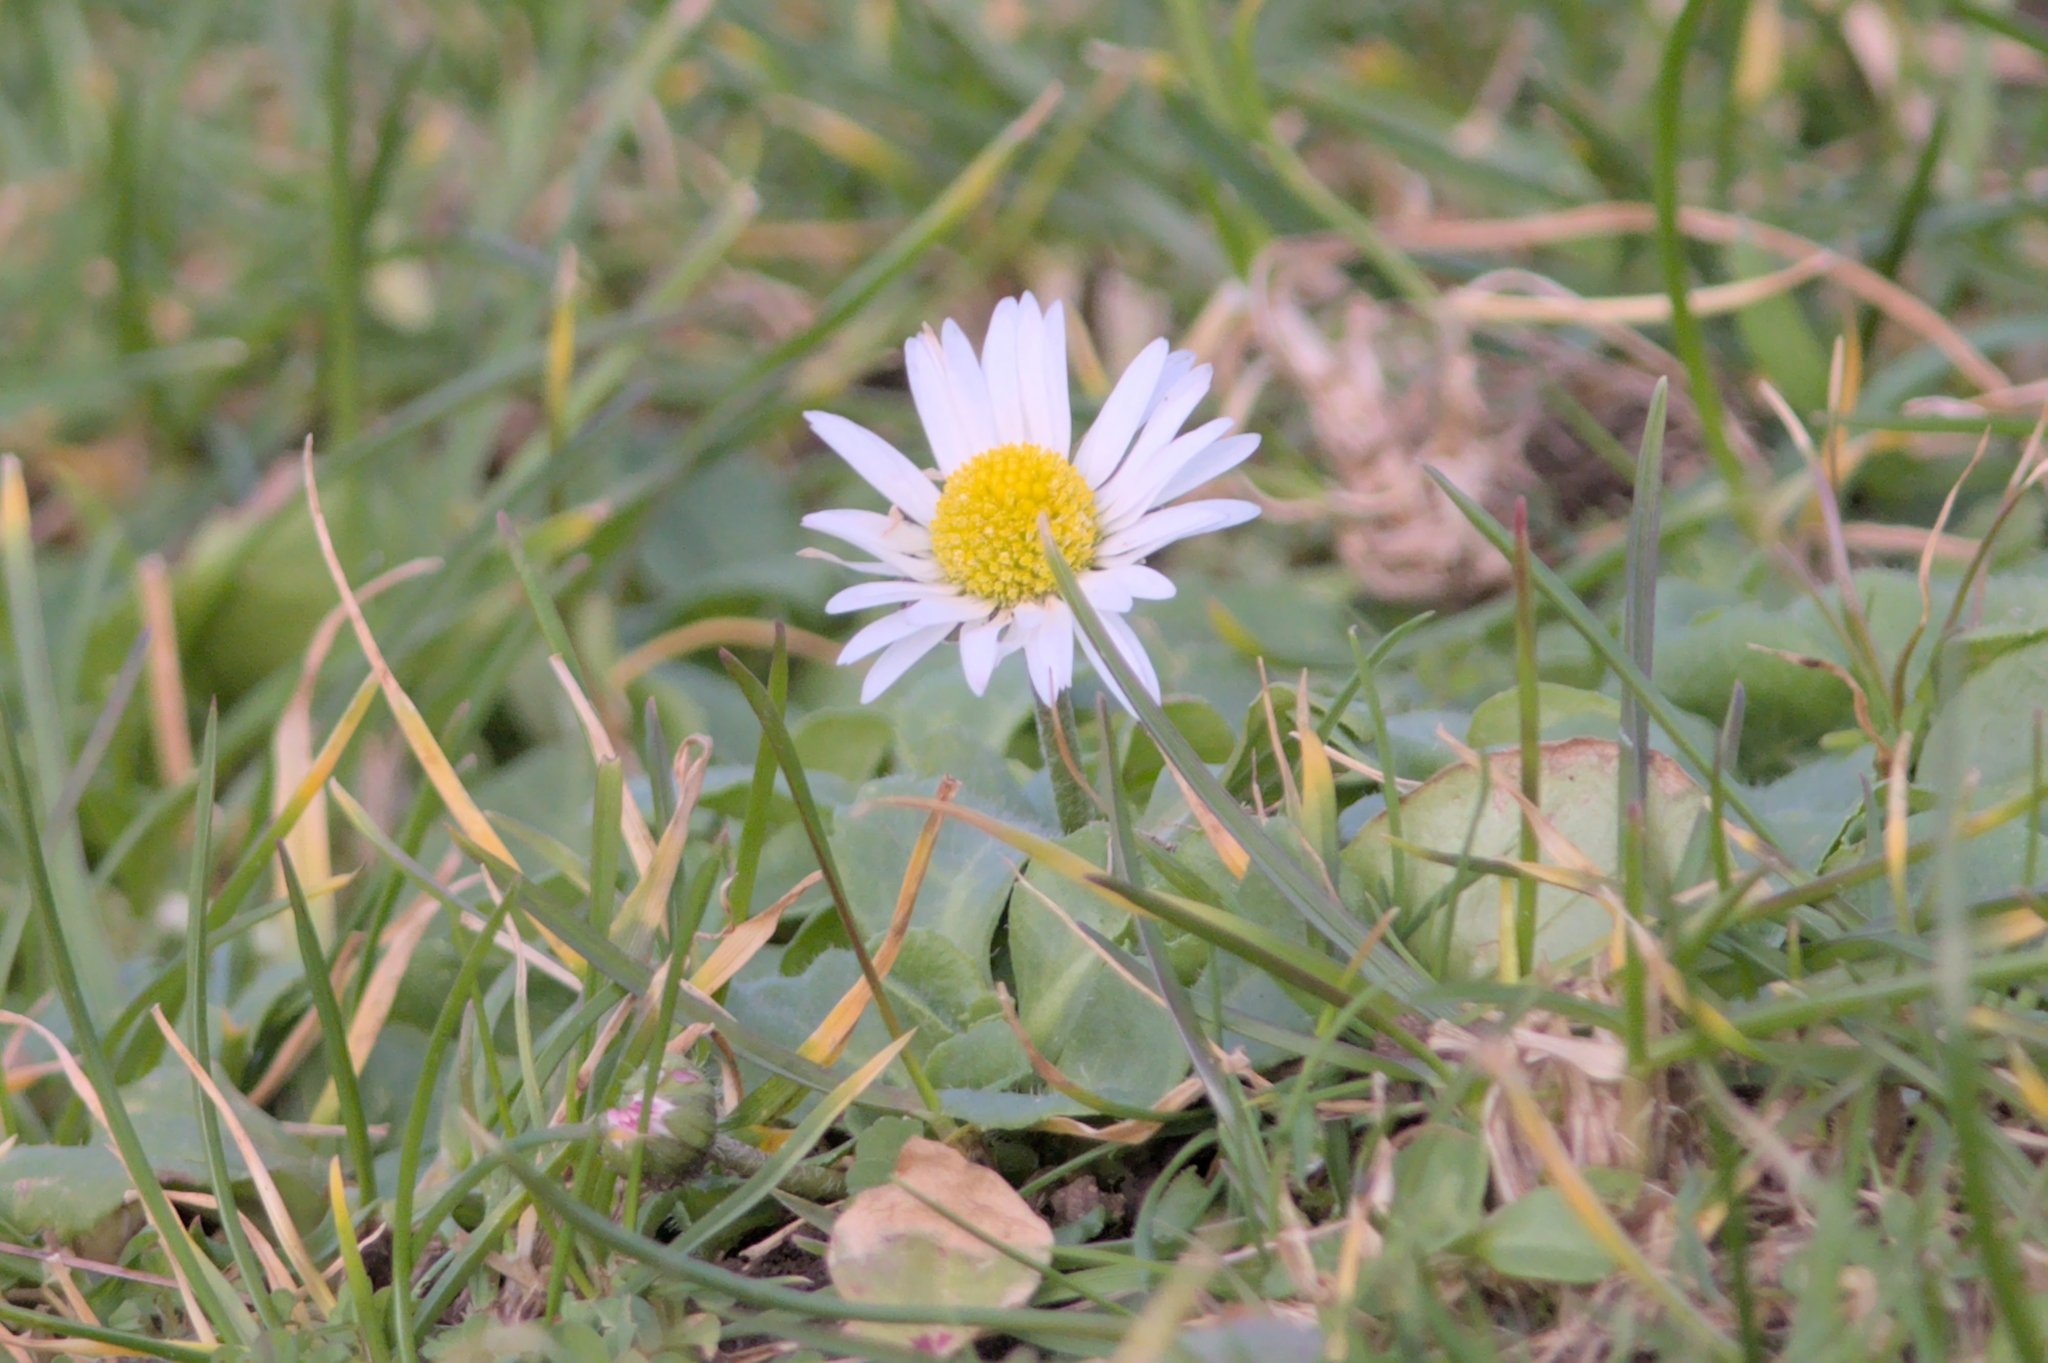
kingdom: Plantae
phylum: Tracheophyta
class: Magnoliopsida
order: Asterales
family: Asteraceae
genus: Bellis
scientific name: Bellis perennis
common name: Lawndaisy
